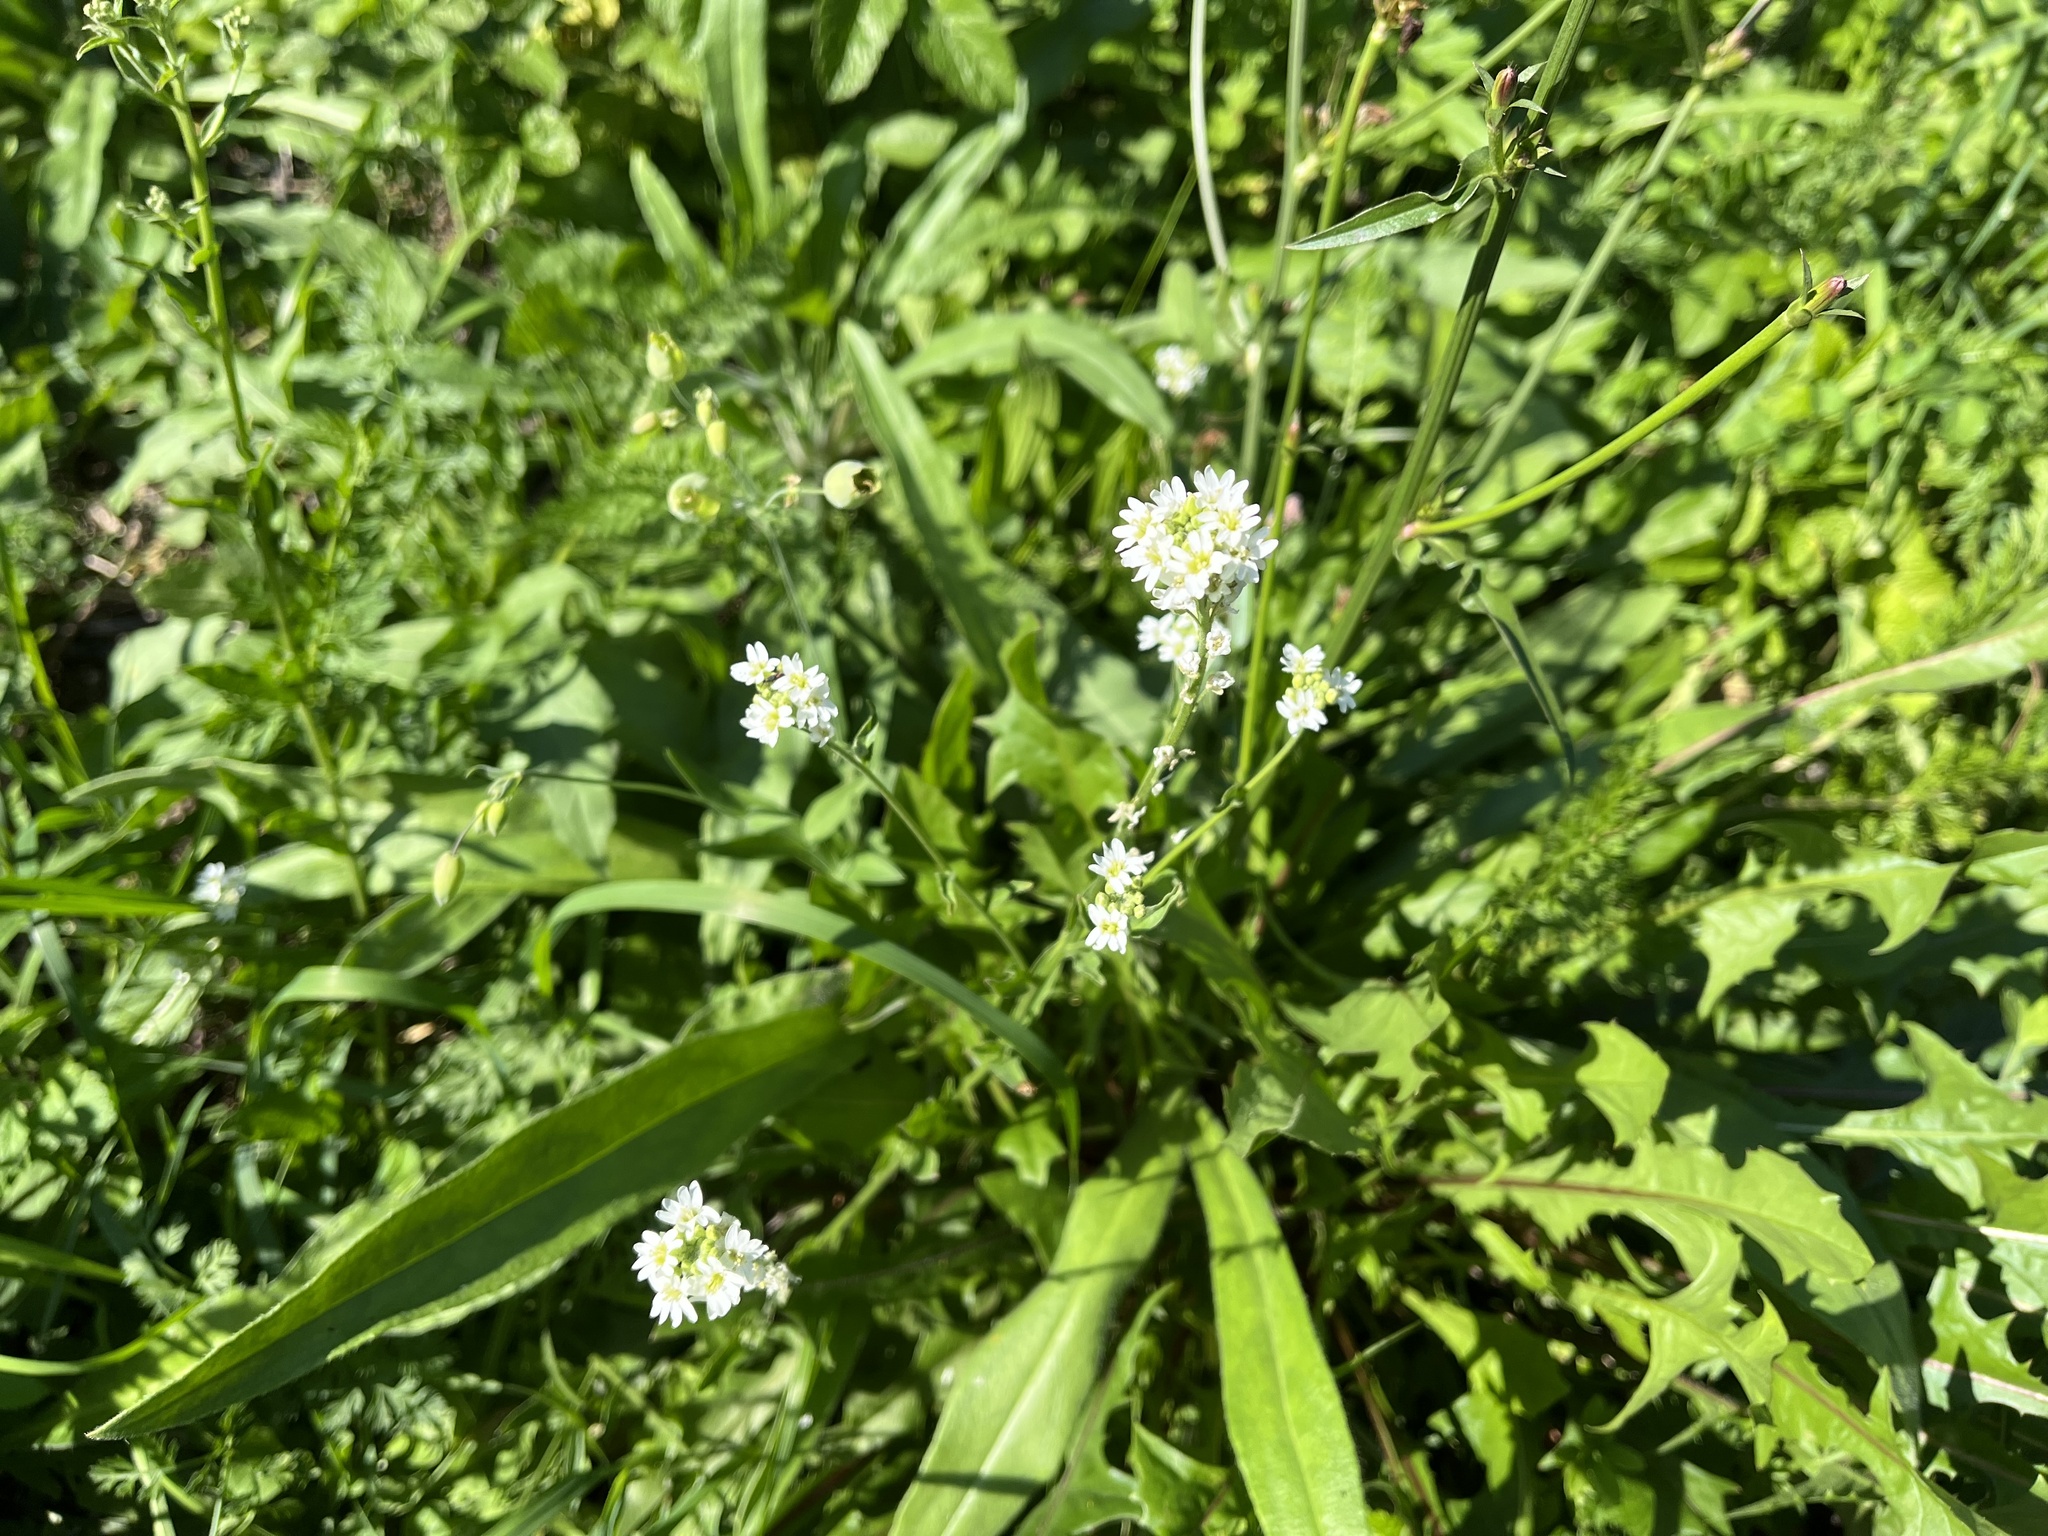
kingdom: Plantae
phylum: Tracheophyta
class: Magnoliopsida
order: Brassicales
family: Brassicaceae
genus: Berteroa
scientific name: Berteroa incana
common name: Hoary alison
